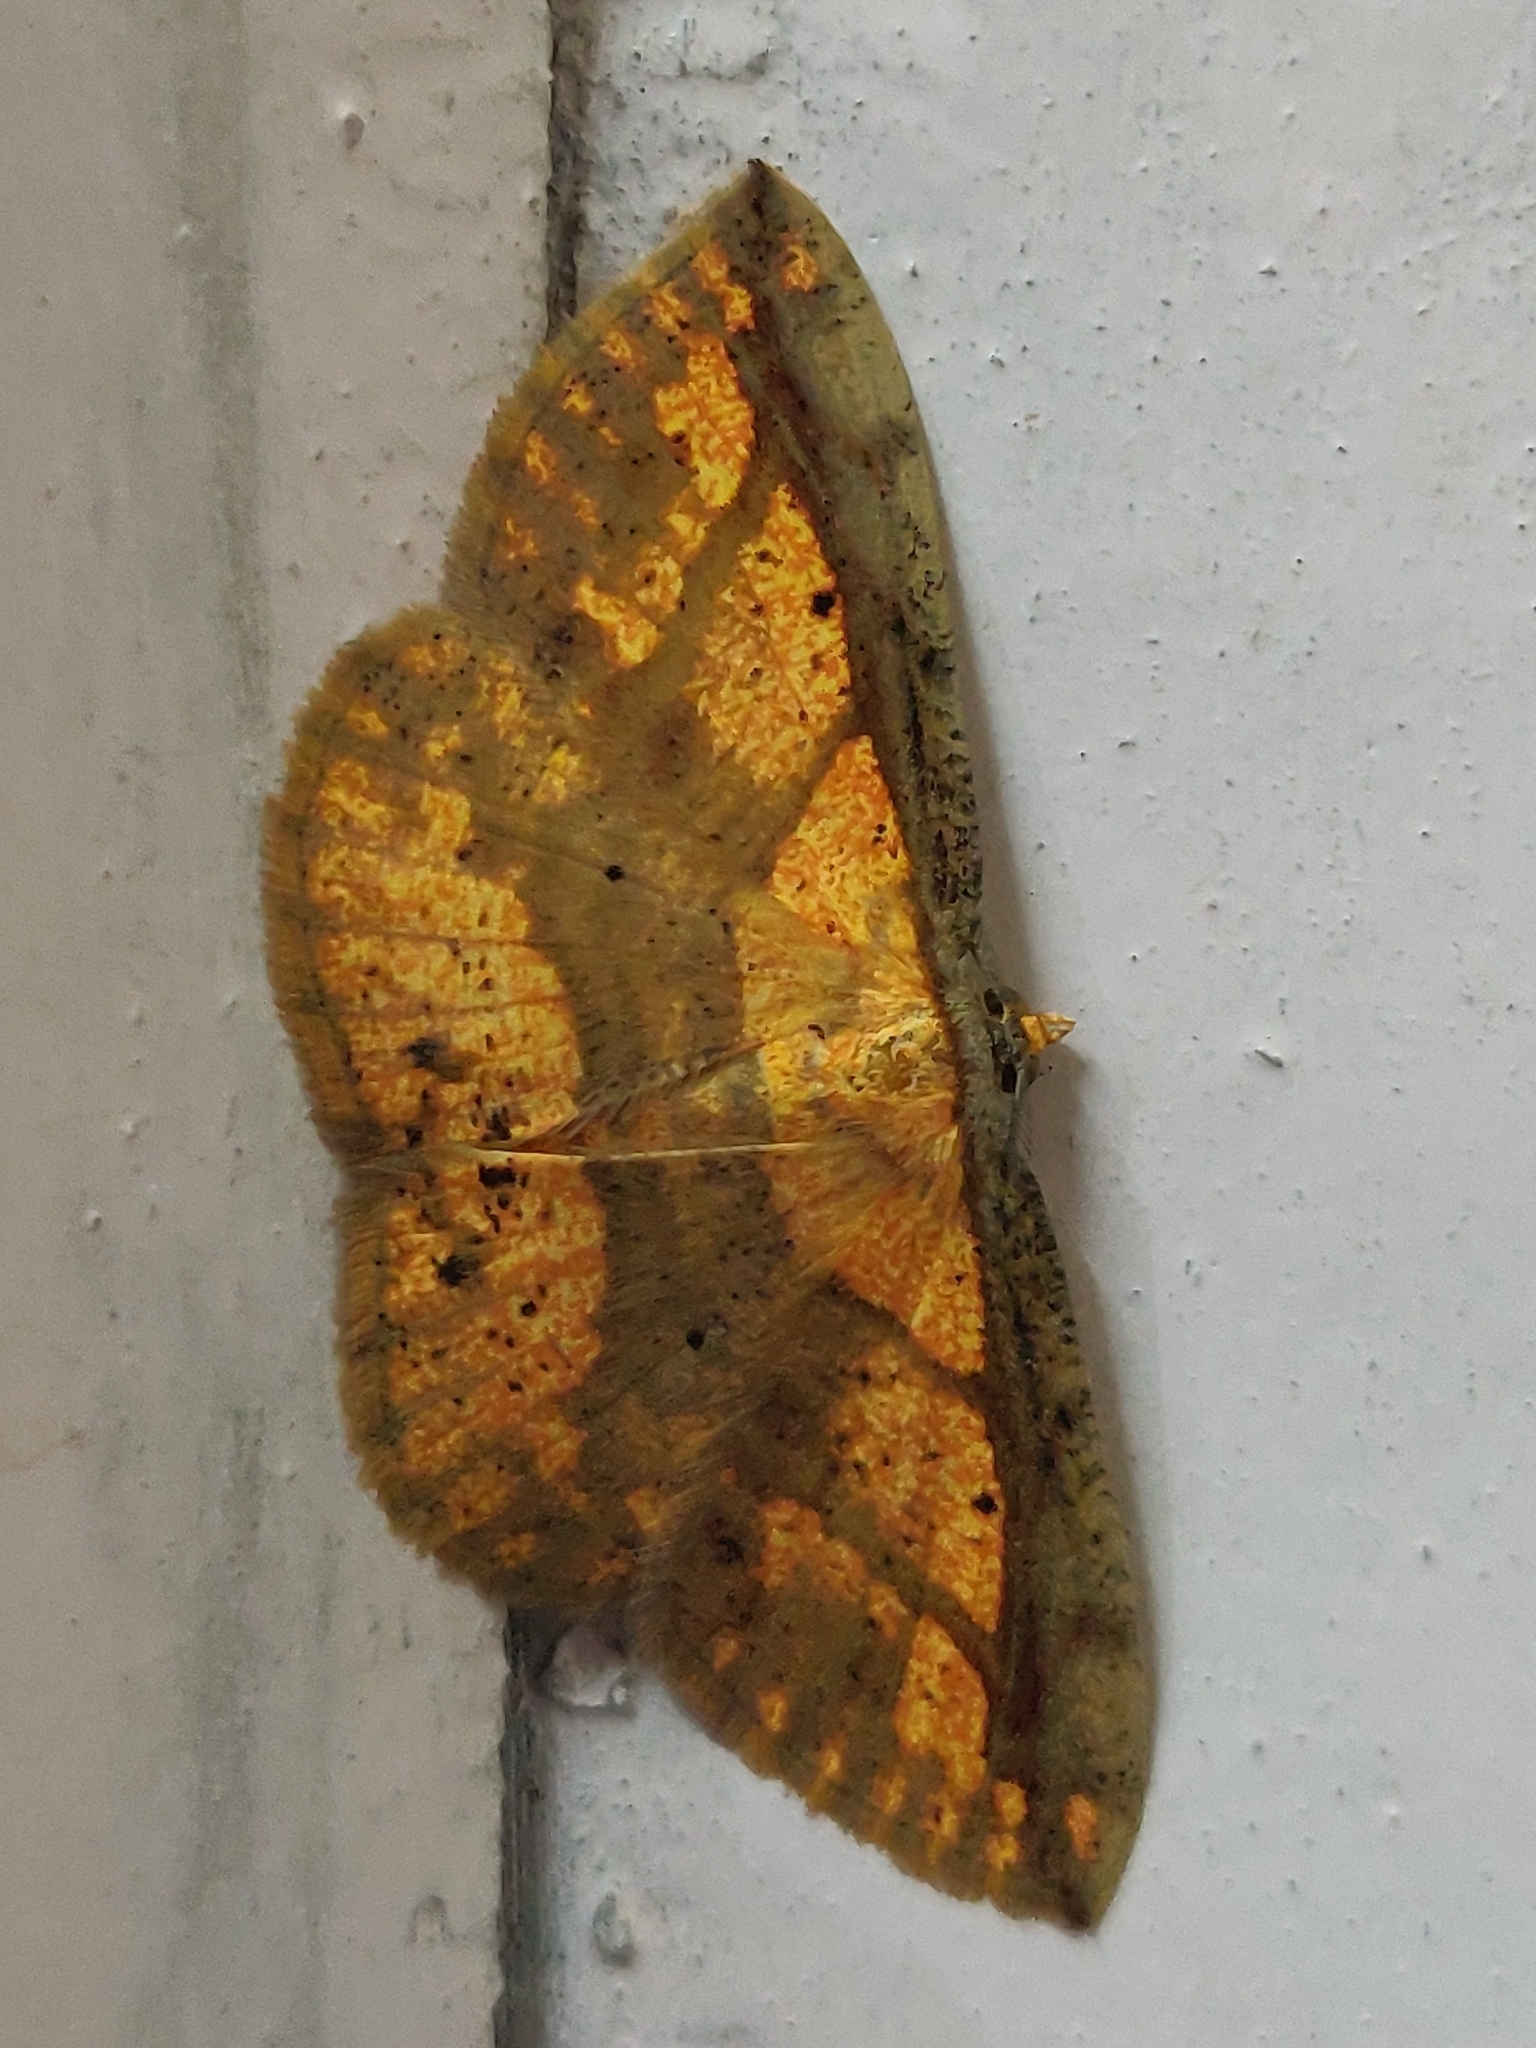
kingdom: Animalia
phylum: Arthropoda
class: Insecta
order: Lepidoptera
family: Geometridae
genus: Platycerota
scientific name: Platycerota vitticostata
